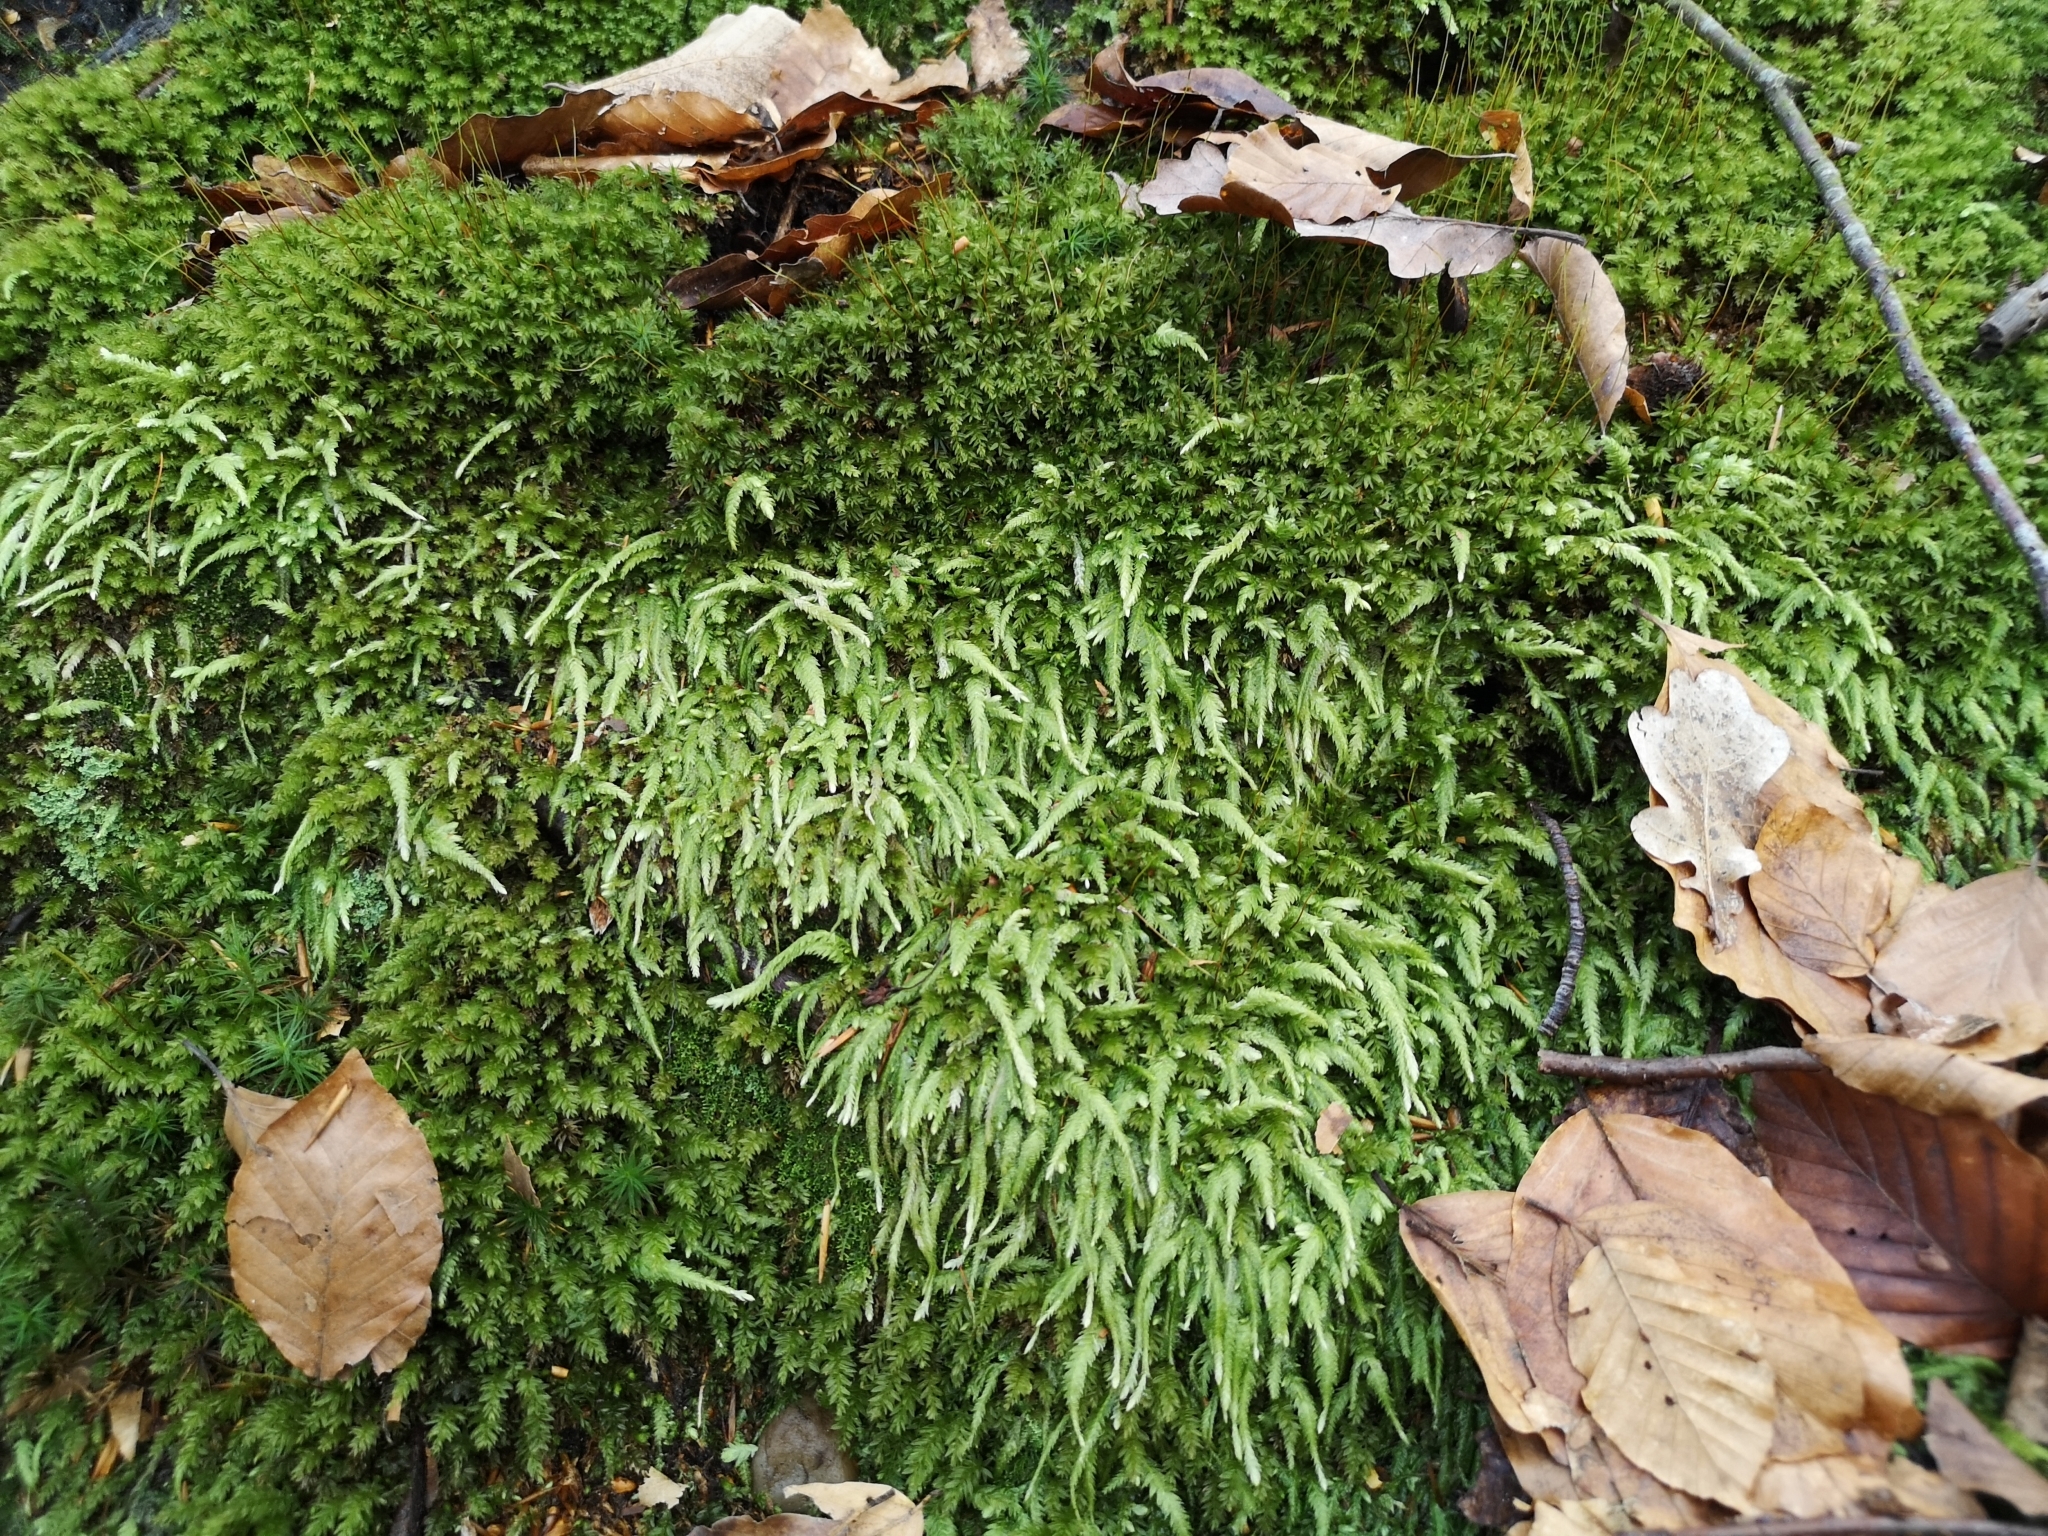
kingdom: Plantae
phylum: Bryophyta
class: Bryopsida
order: Hypnales
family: Plagiotheciaceae
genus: Plagiothecium
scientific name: Plagiothecium undulatum
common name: Waved silk-moss
